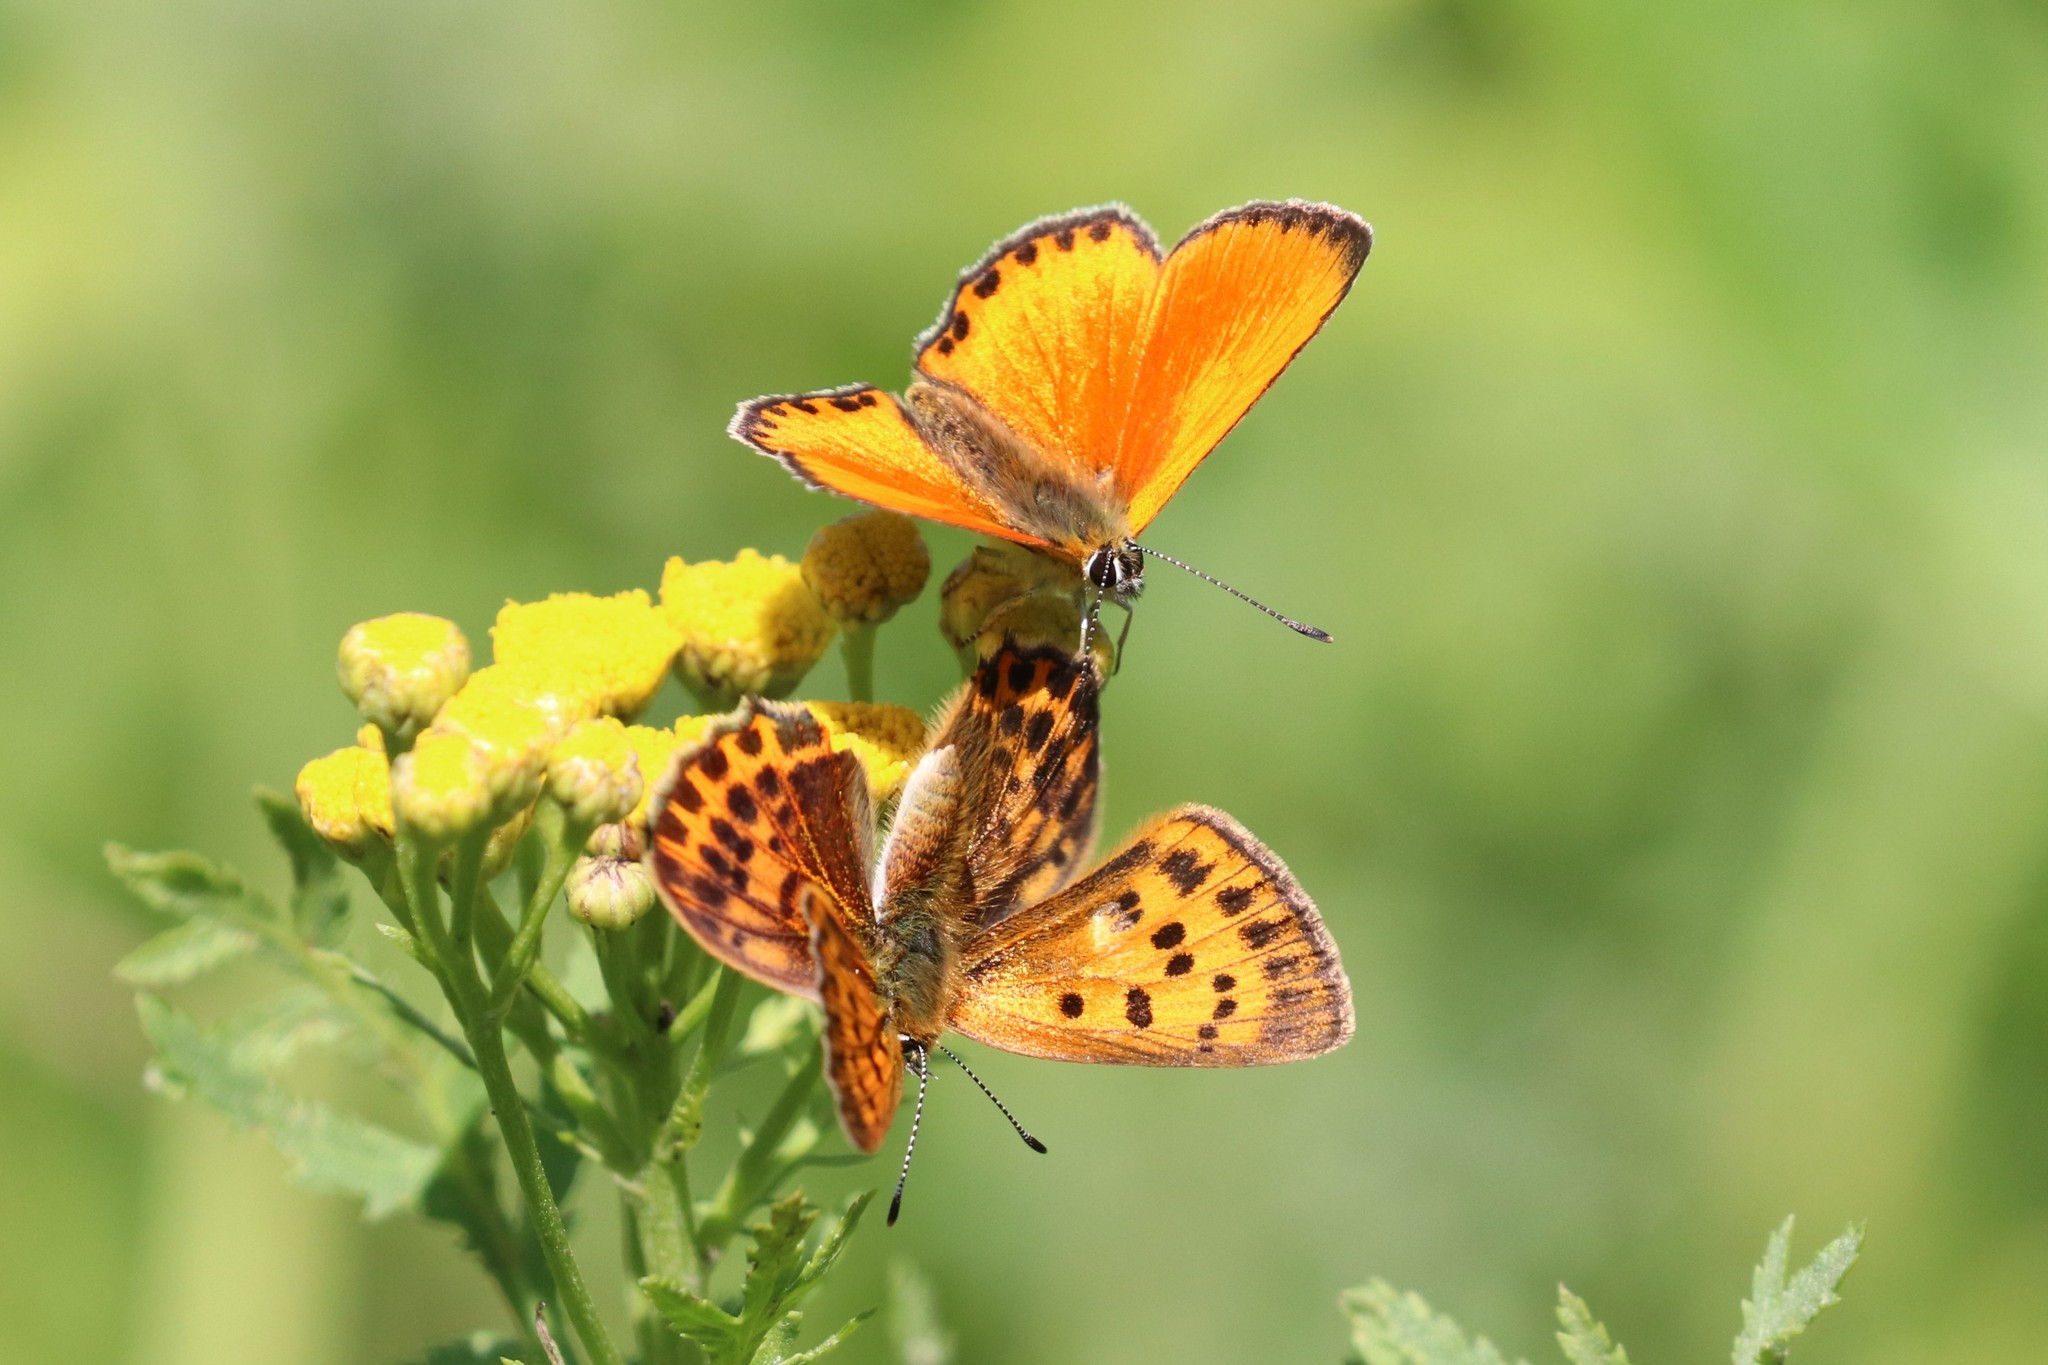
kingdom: Animalia
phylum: Arthropoda
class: Insecta
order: Lepidoptera
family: Lycaenidae
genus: Lycaena
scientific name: Lycaena virgaureae
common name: Scarce copper
